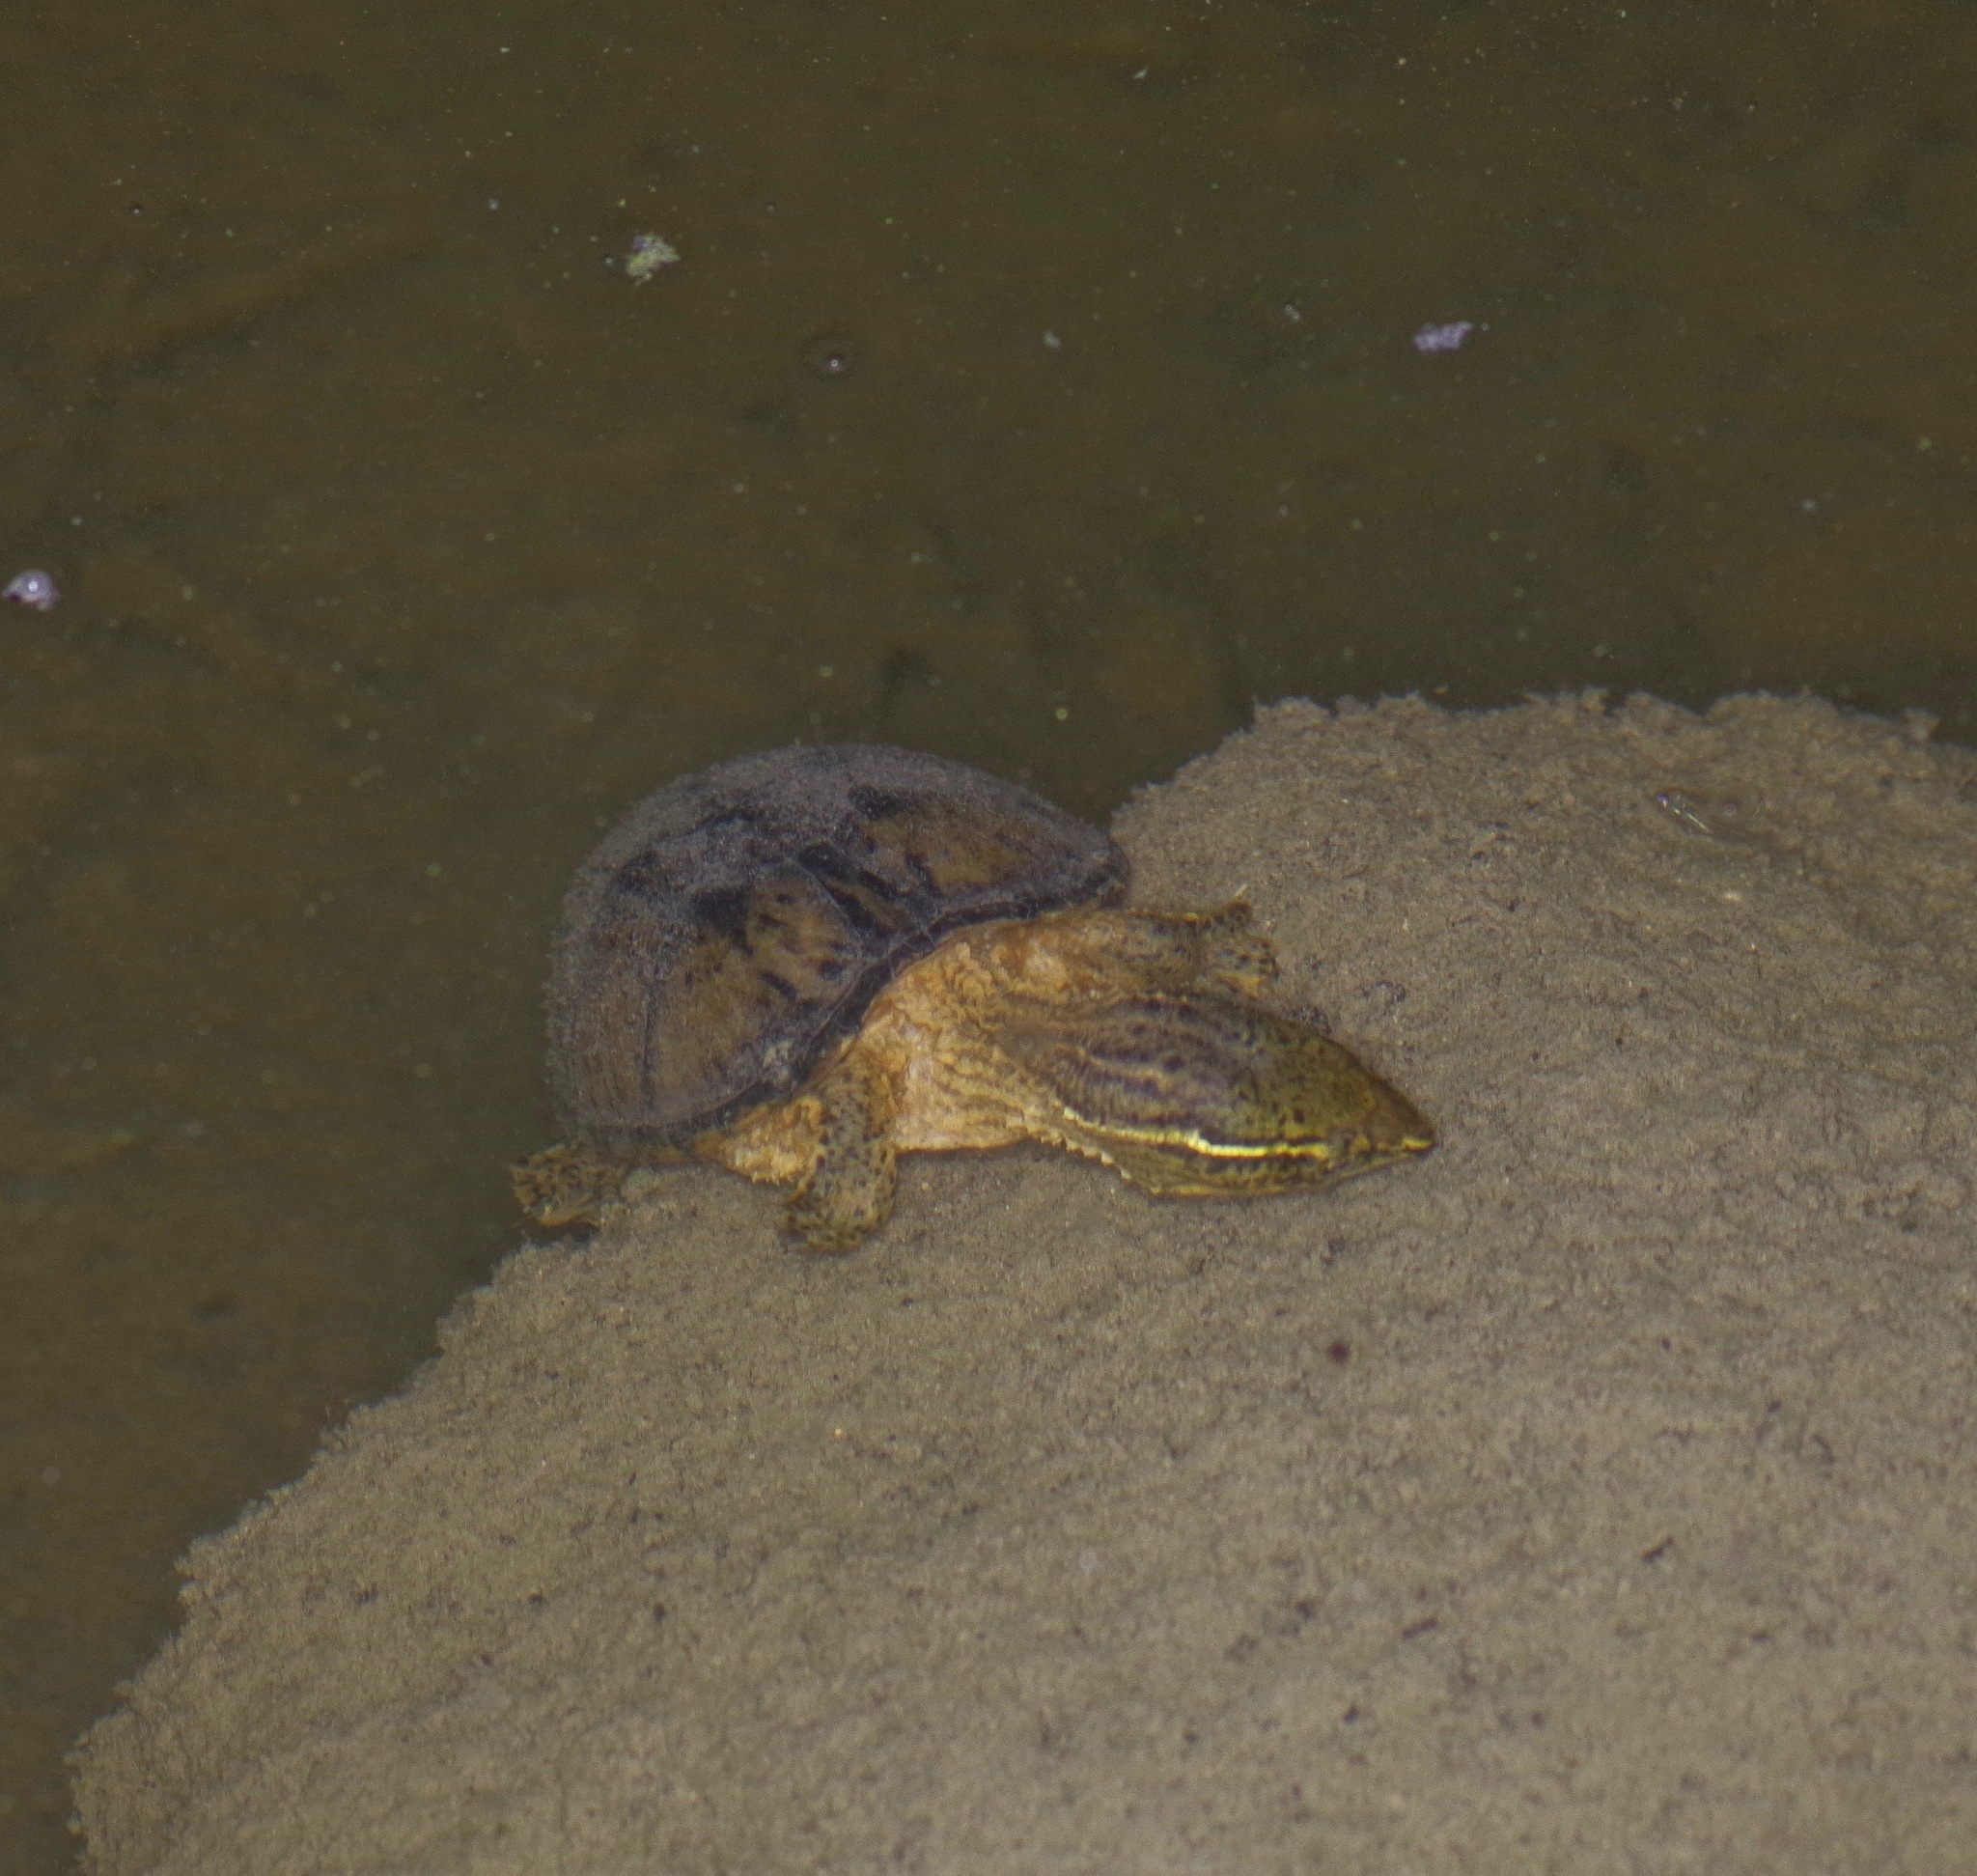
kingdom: Animalia
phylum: Chordata
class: Testudines
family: Kinosternidae
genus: Sternotherus
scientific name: Sternotherus odoratus
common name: Common musk turtle
